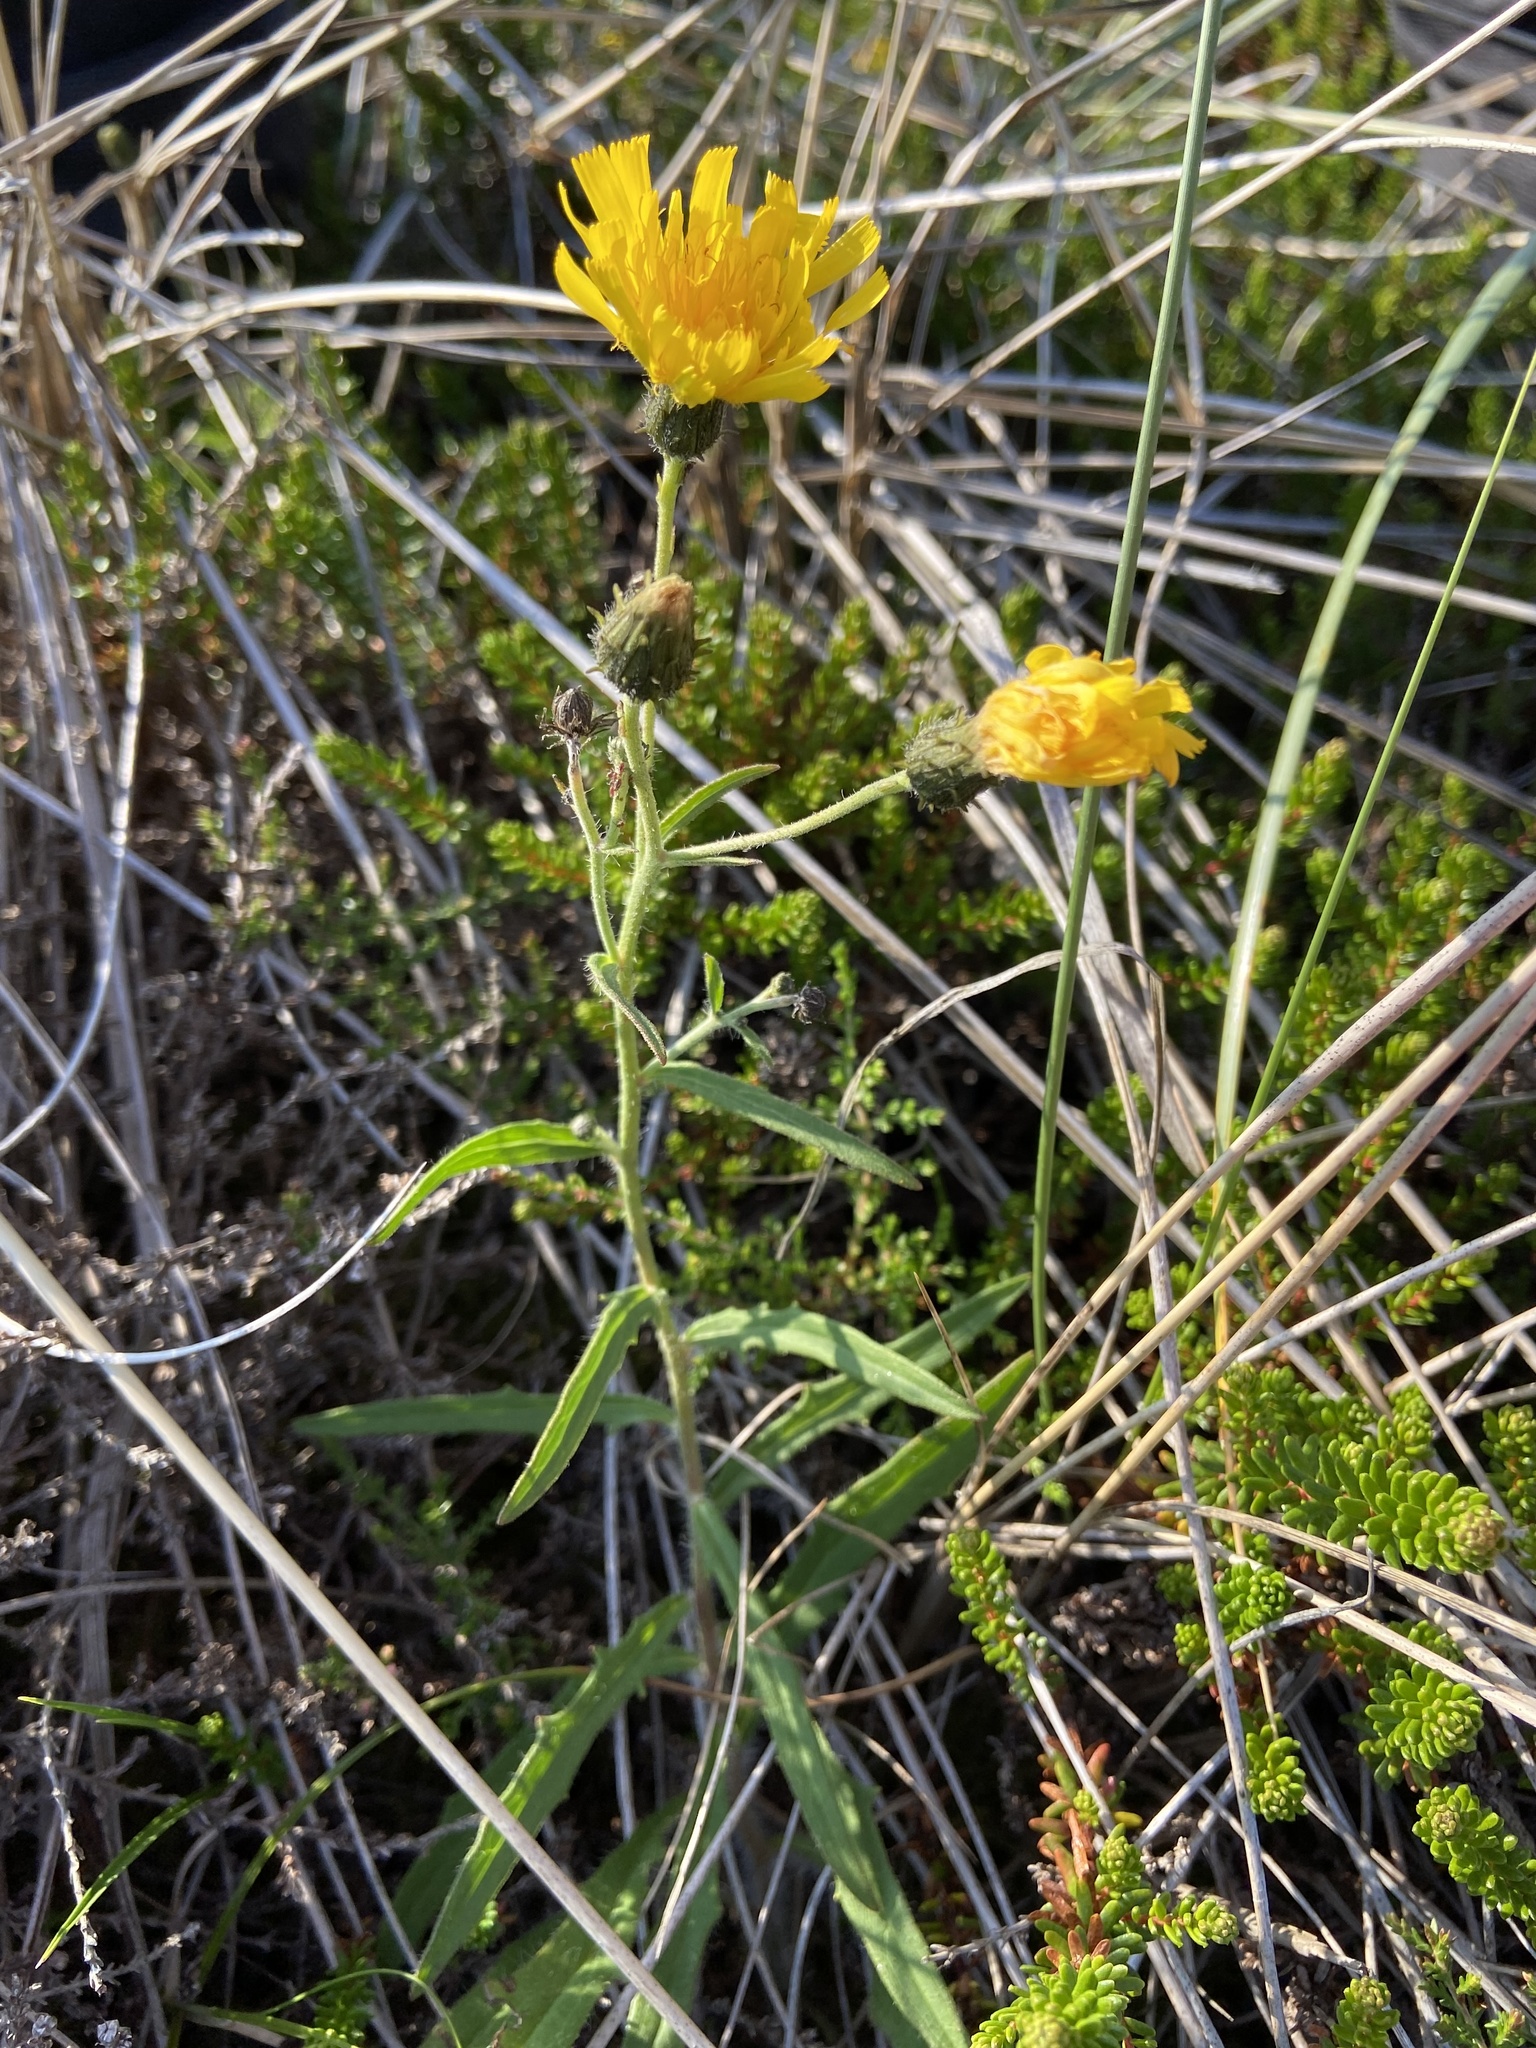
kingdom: Plantae
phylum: Tracheophyta
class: Magnoliopsida
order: Asterales
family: Asteraceae
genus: Hieracium
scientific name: Hieracium umbellatum
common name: Northern hawkweed
